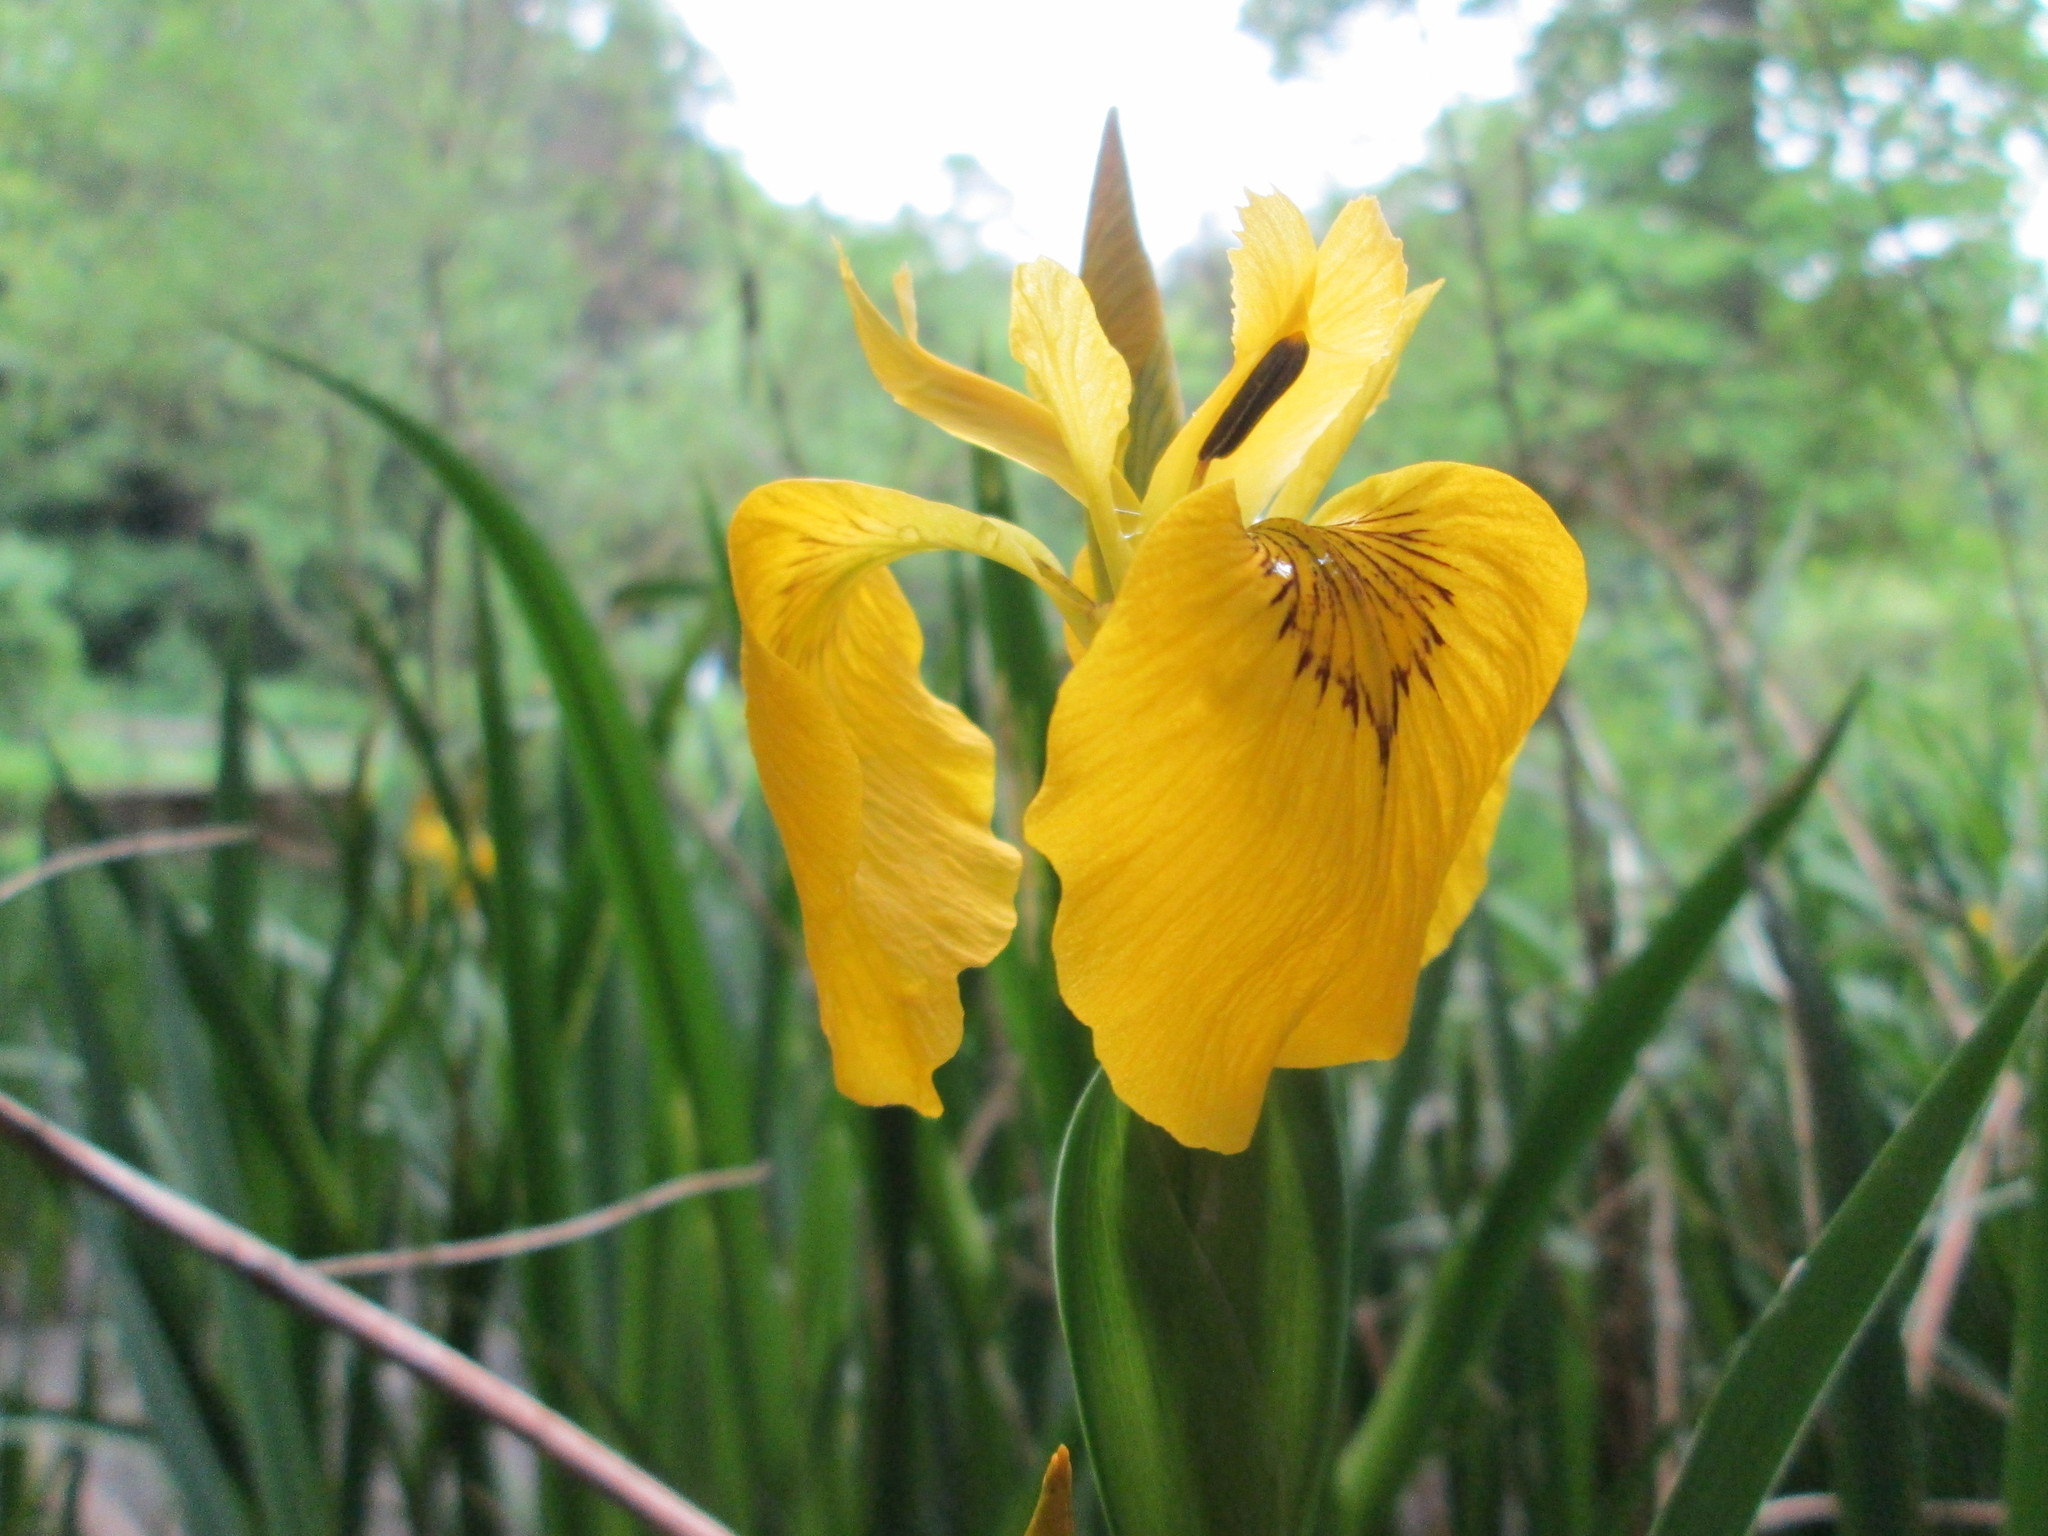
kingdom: Plantae
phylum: Tracheophyta
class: Liliopsida
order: Asparagales
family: Iridaceae
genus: Iris
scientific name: Iris pseudacorus
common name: Yellow flag
